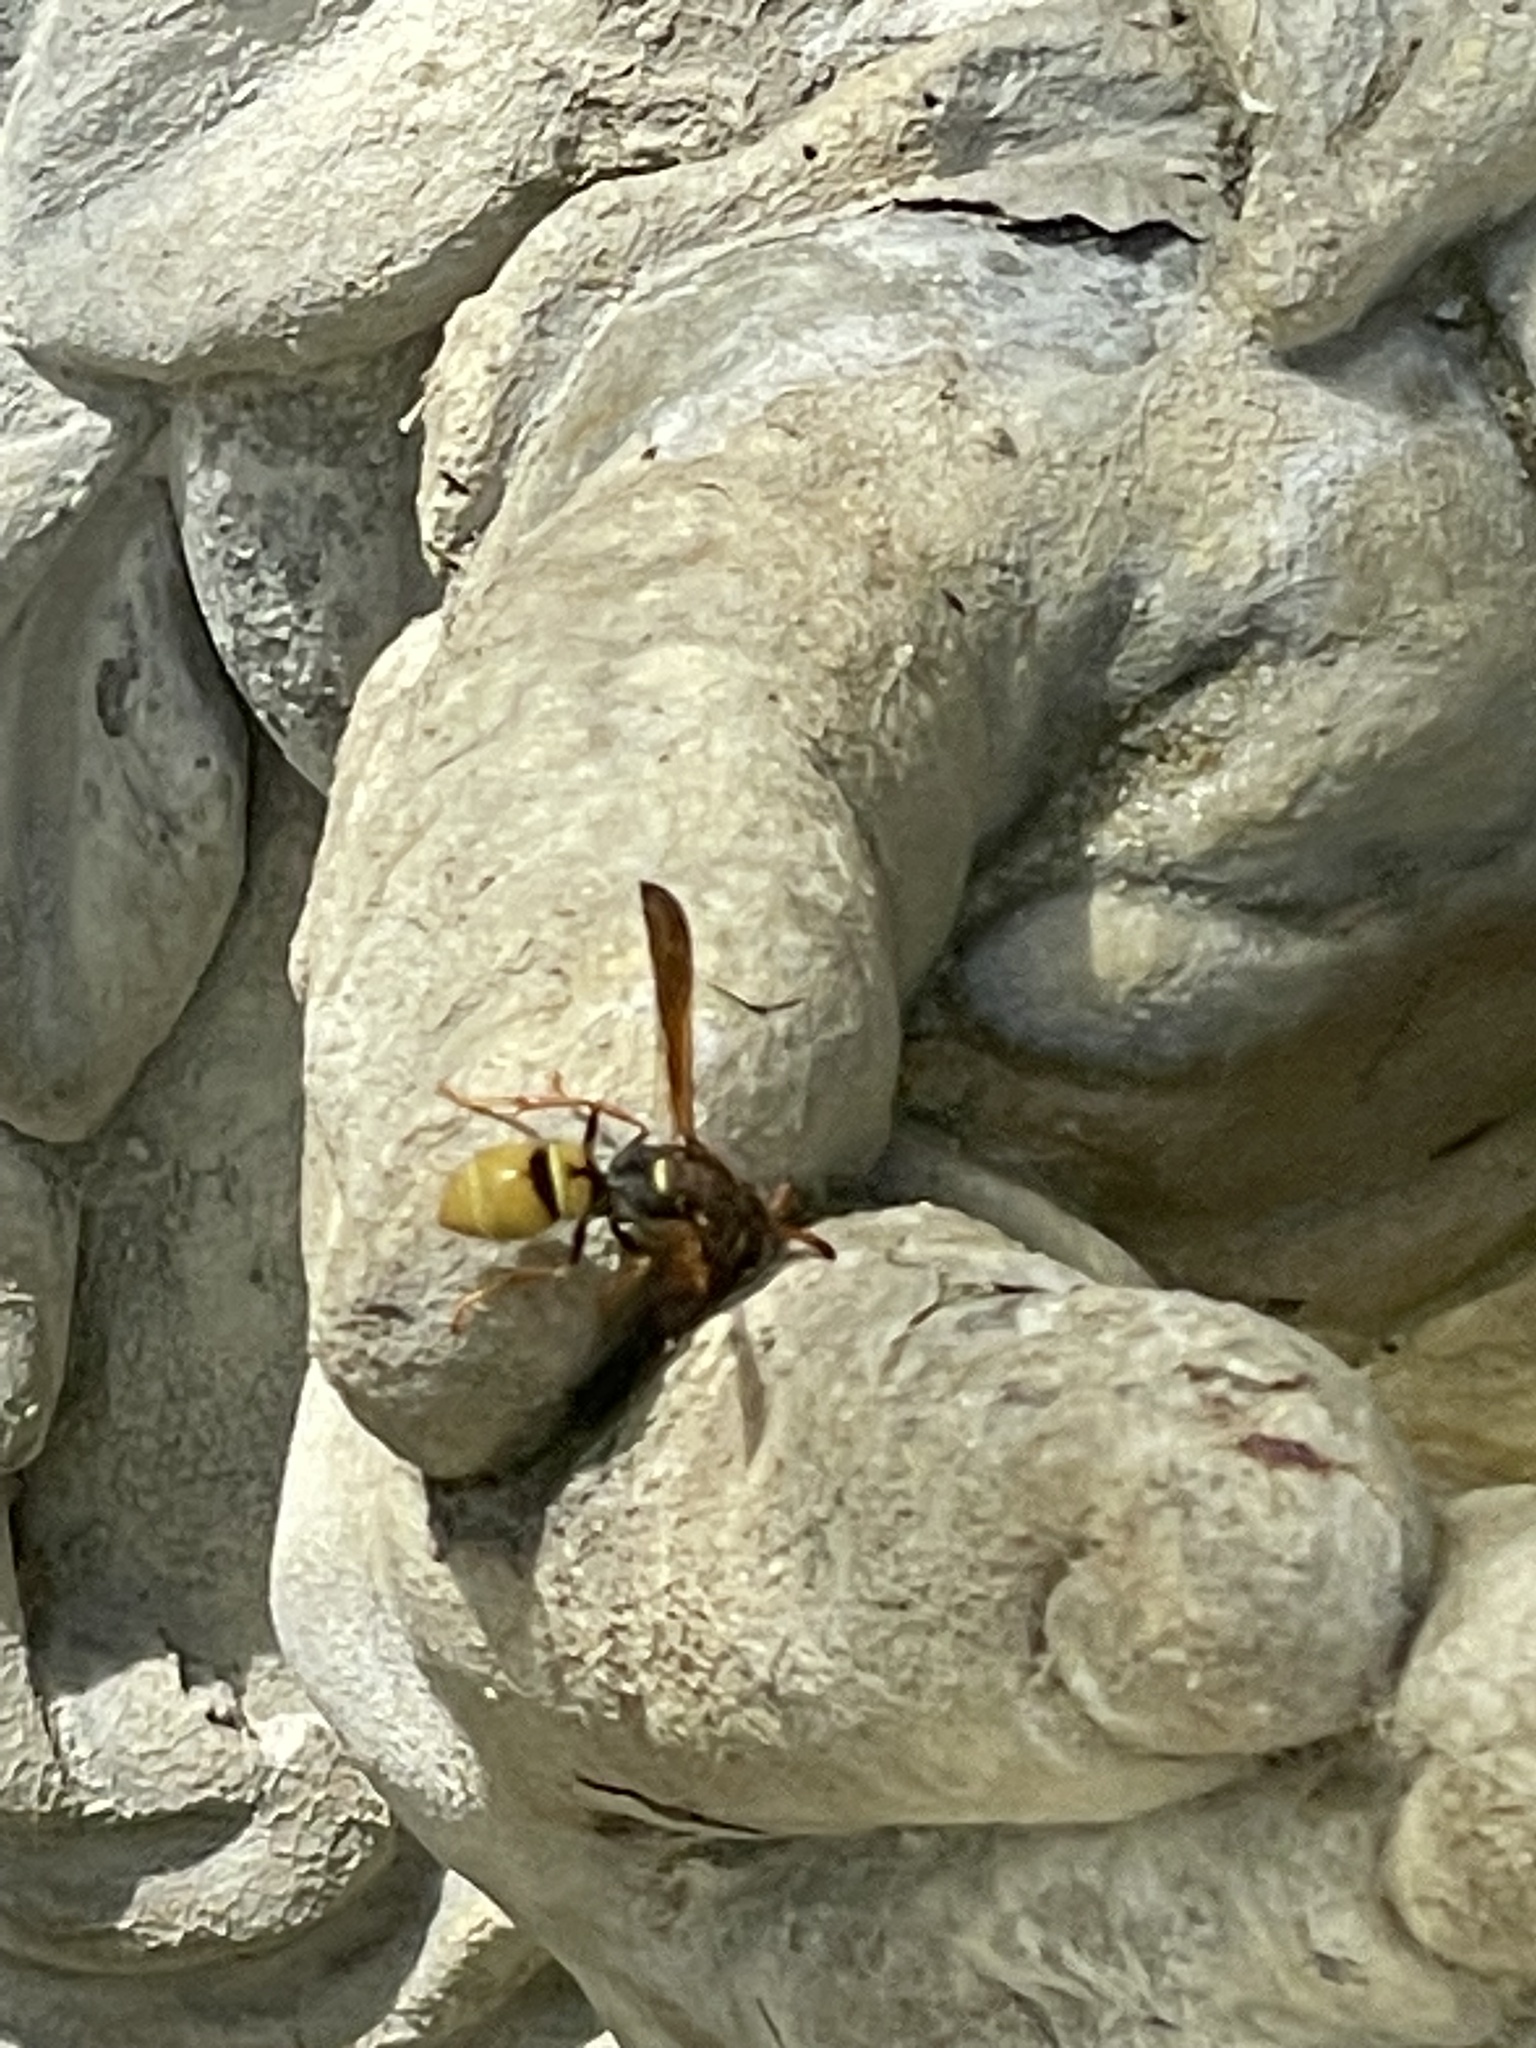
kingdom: Animalia
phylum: Arthropoda
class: Insecta
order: Hymenoptera
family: Vespidae
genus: Ancistrocerus
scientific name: Ancistrocerus
